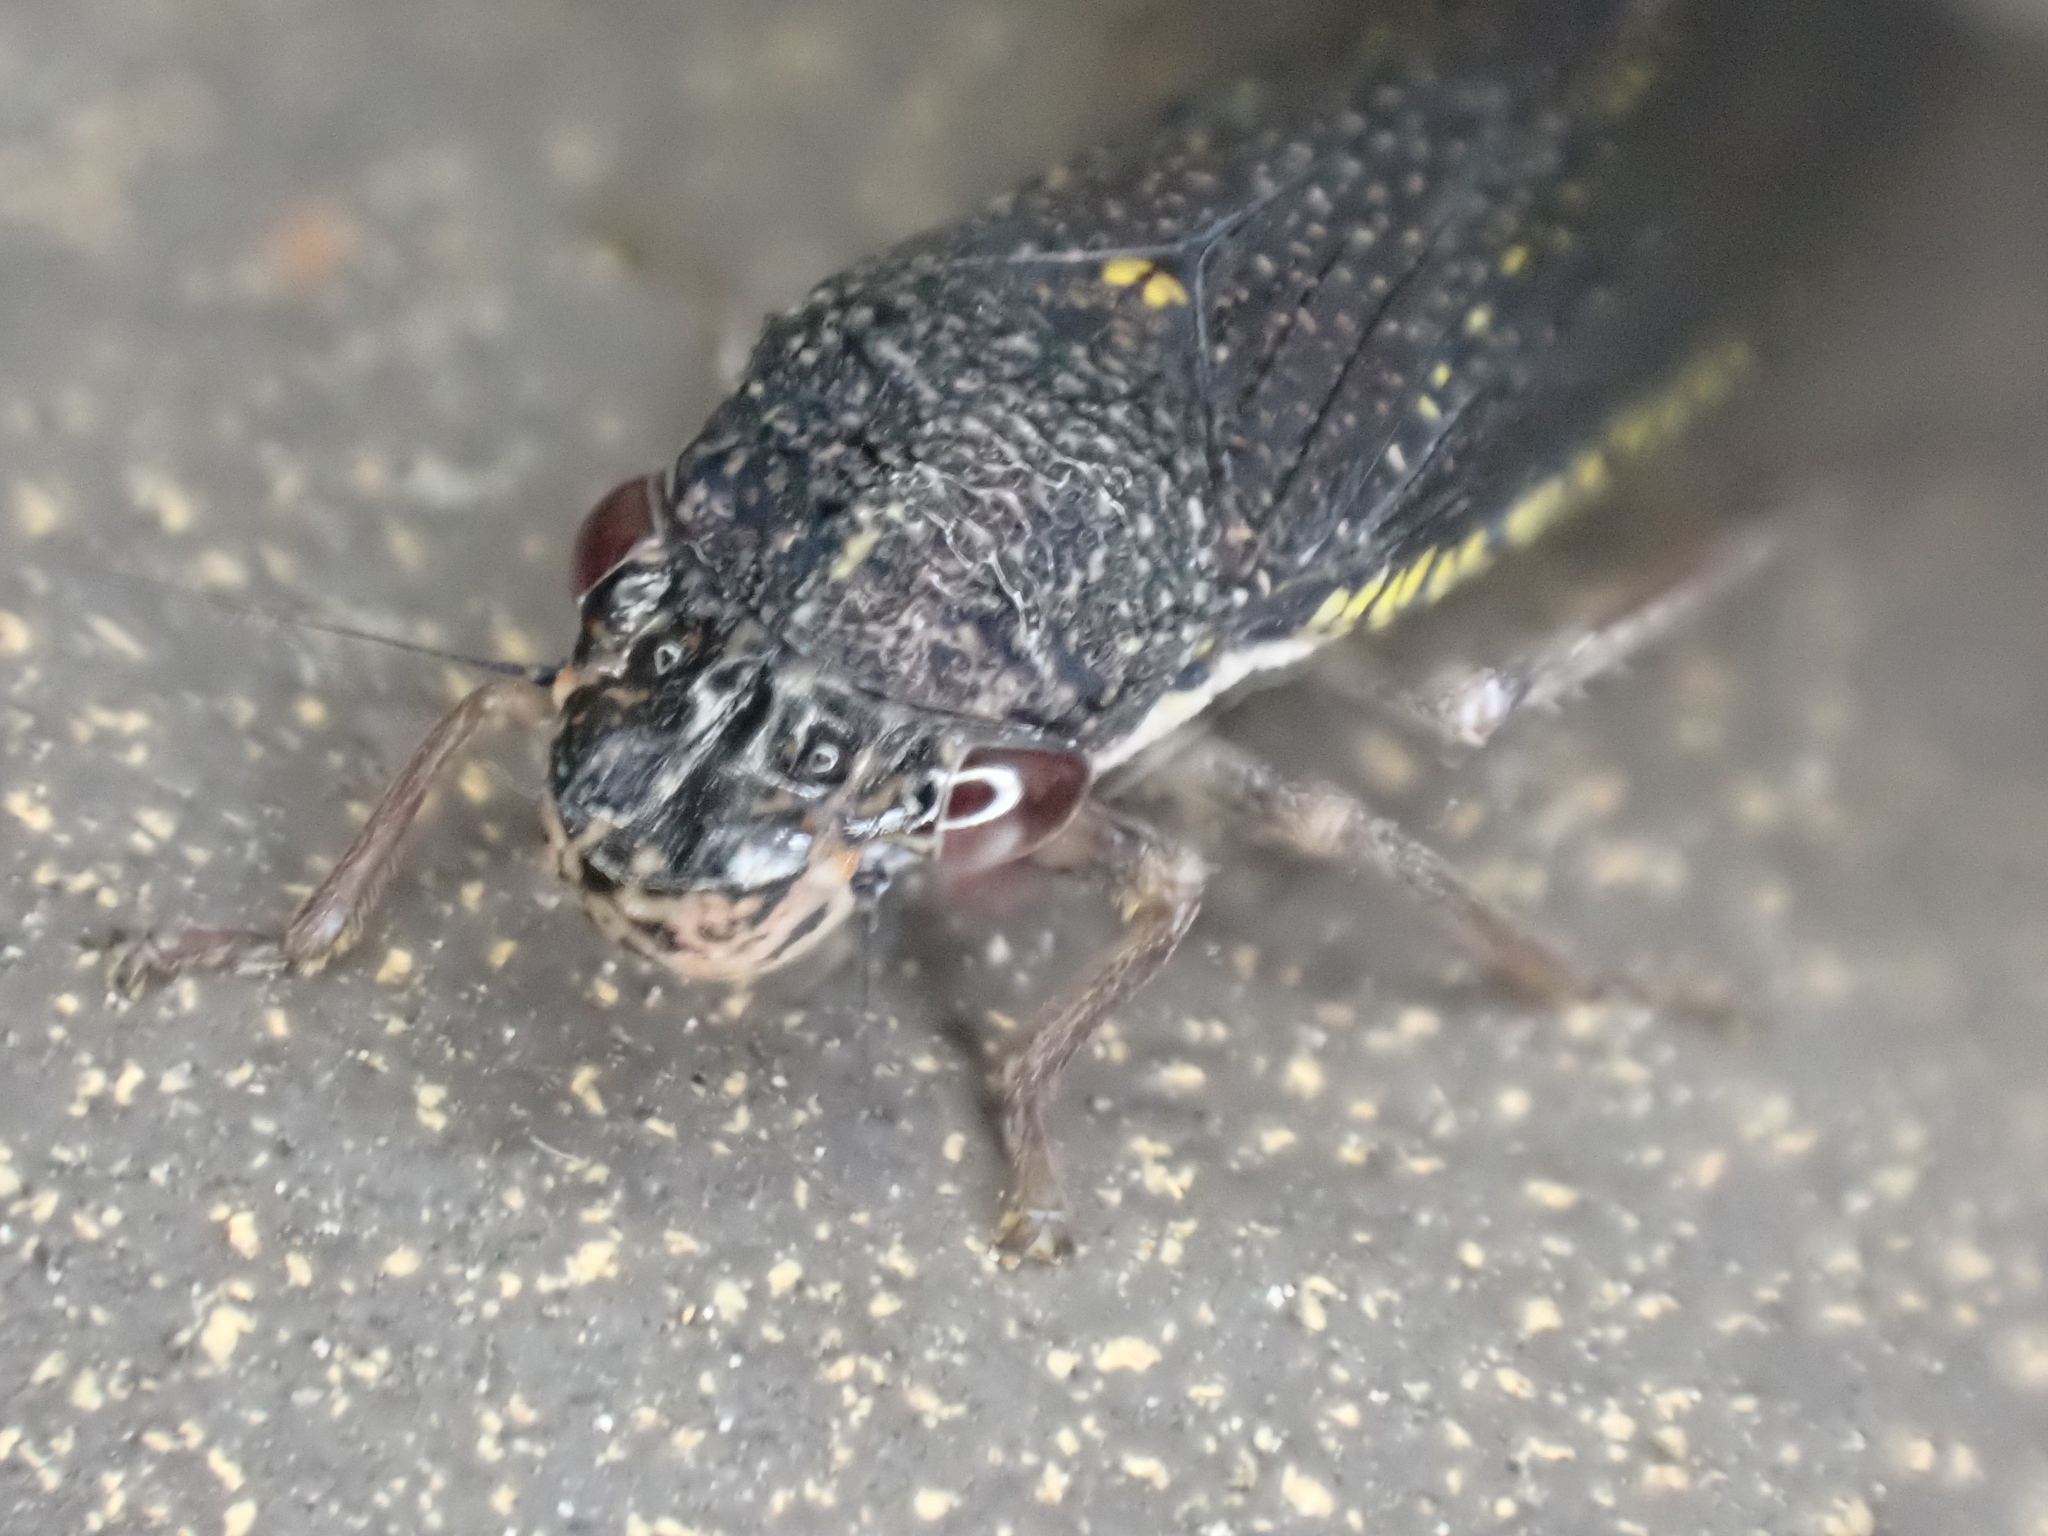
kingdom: Animalia
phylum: Arthropoda
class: Insecta
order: Hemiptera
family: Cicadellidae
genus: Paraulacizes
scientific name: Paraulacizes irrorata
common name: Speckled sharpshooter
